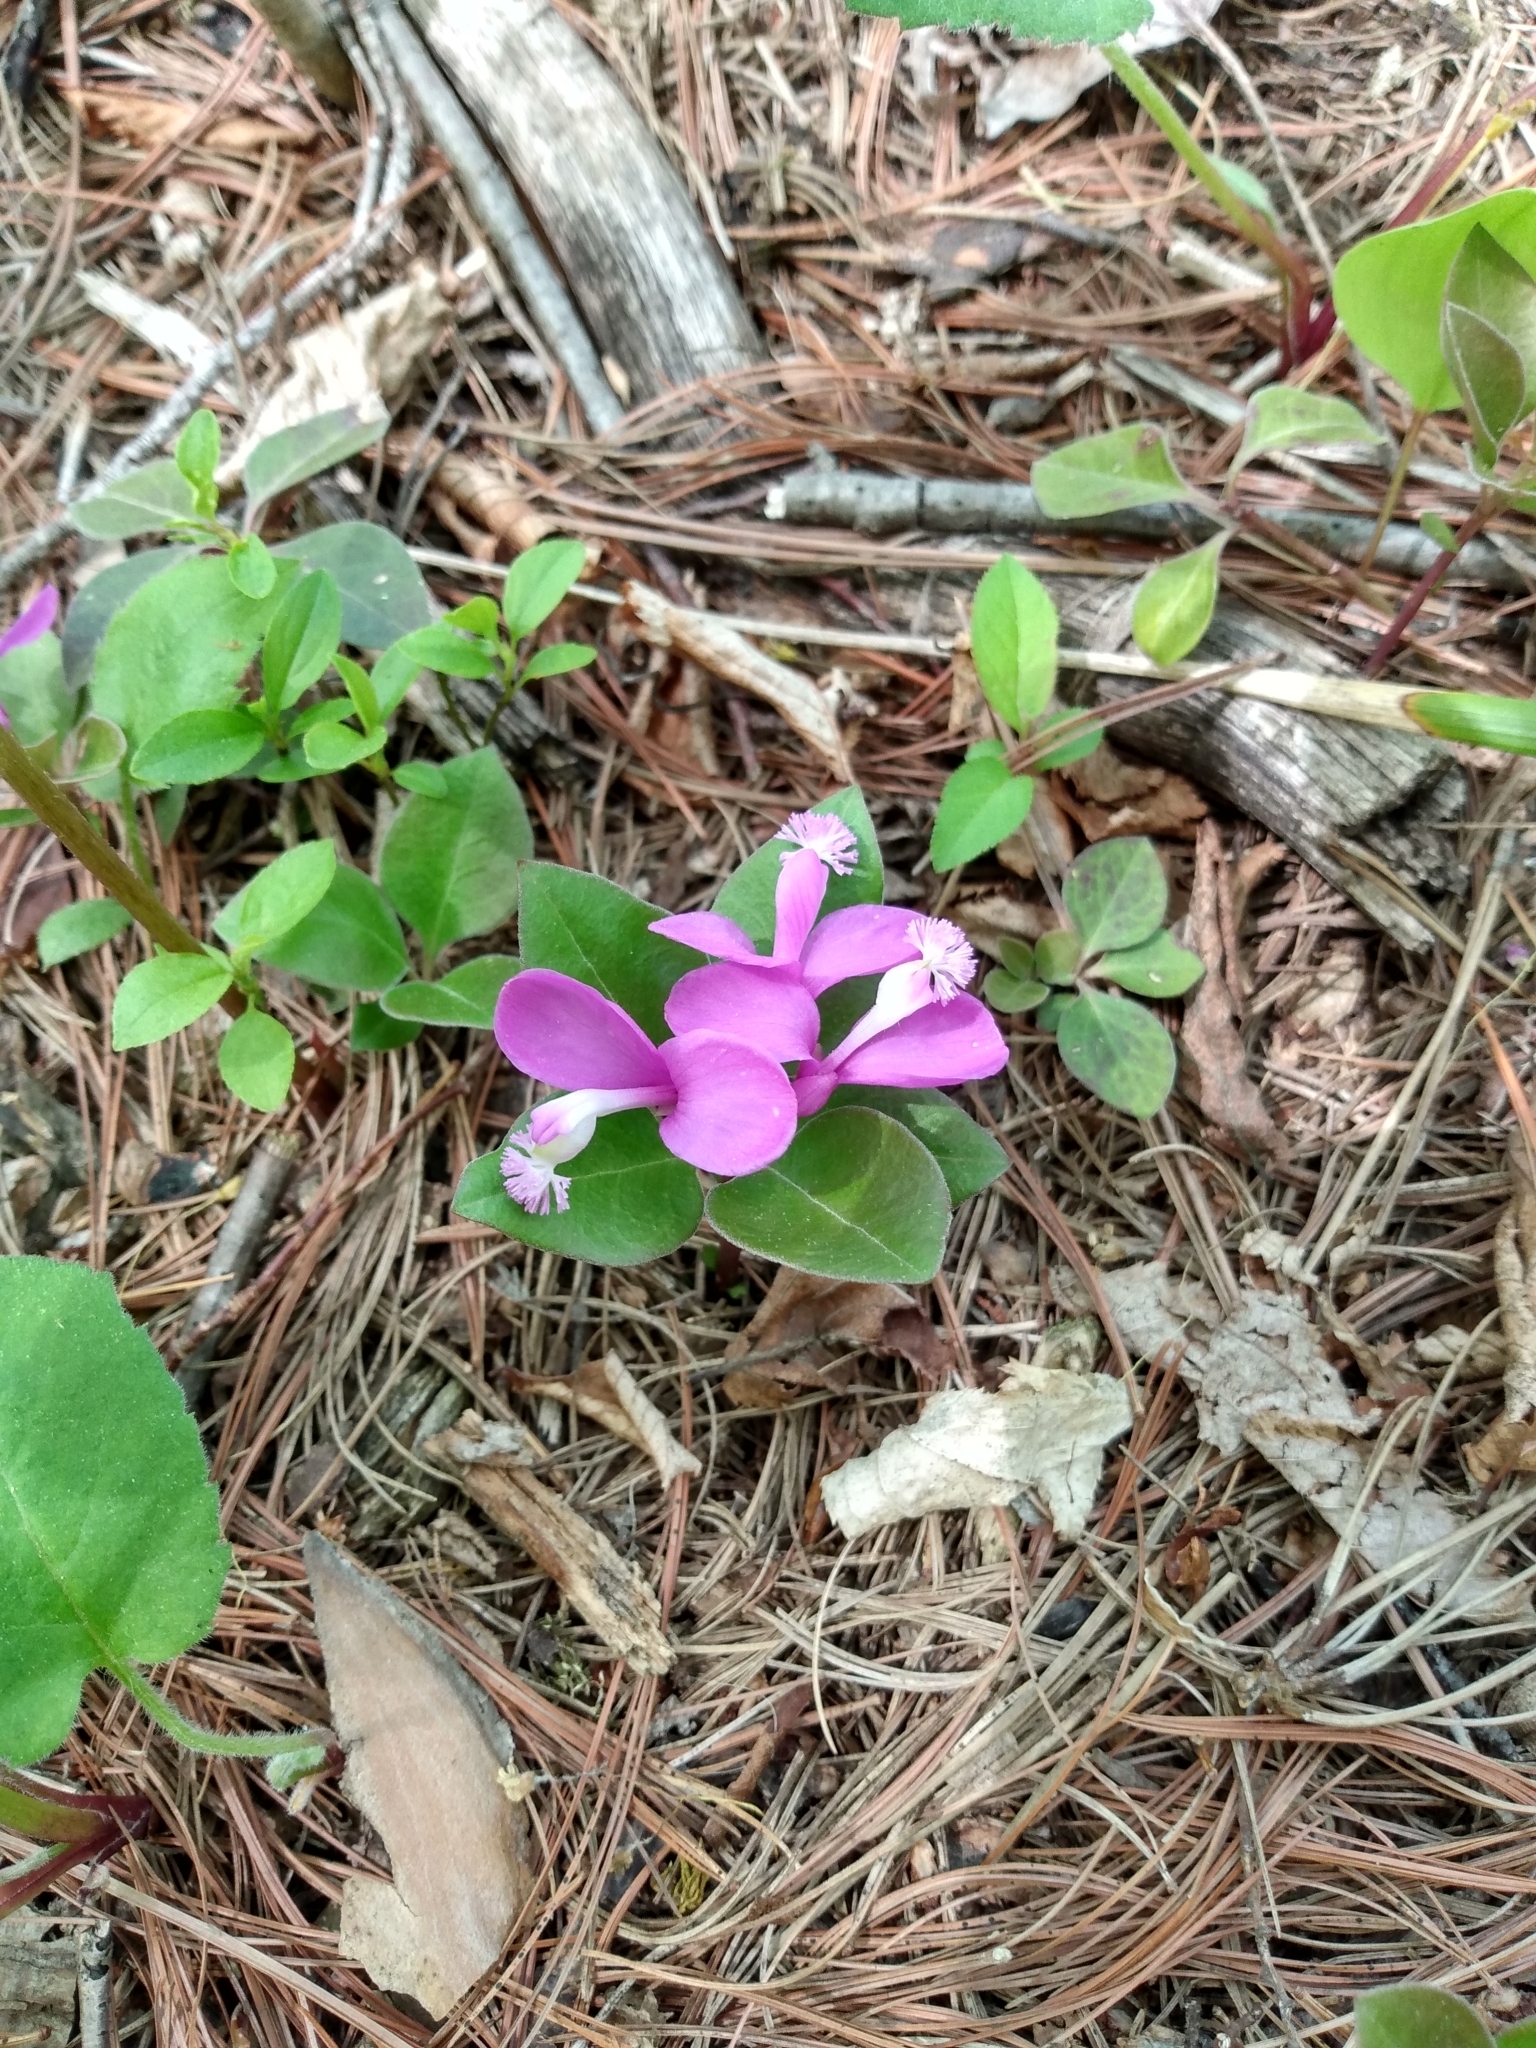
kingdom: Plantae
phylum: Tracheophyta
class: Magnoliopsida
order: Fabales
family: Polygalaceae
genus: Polygaloides
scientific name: Polygaloides paucifolia
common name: Bird-on-the-wing
